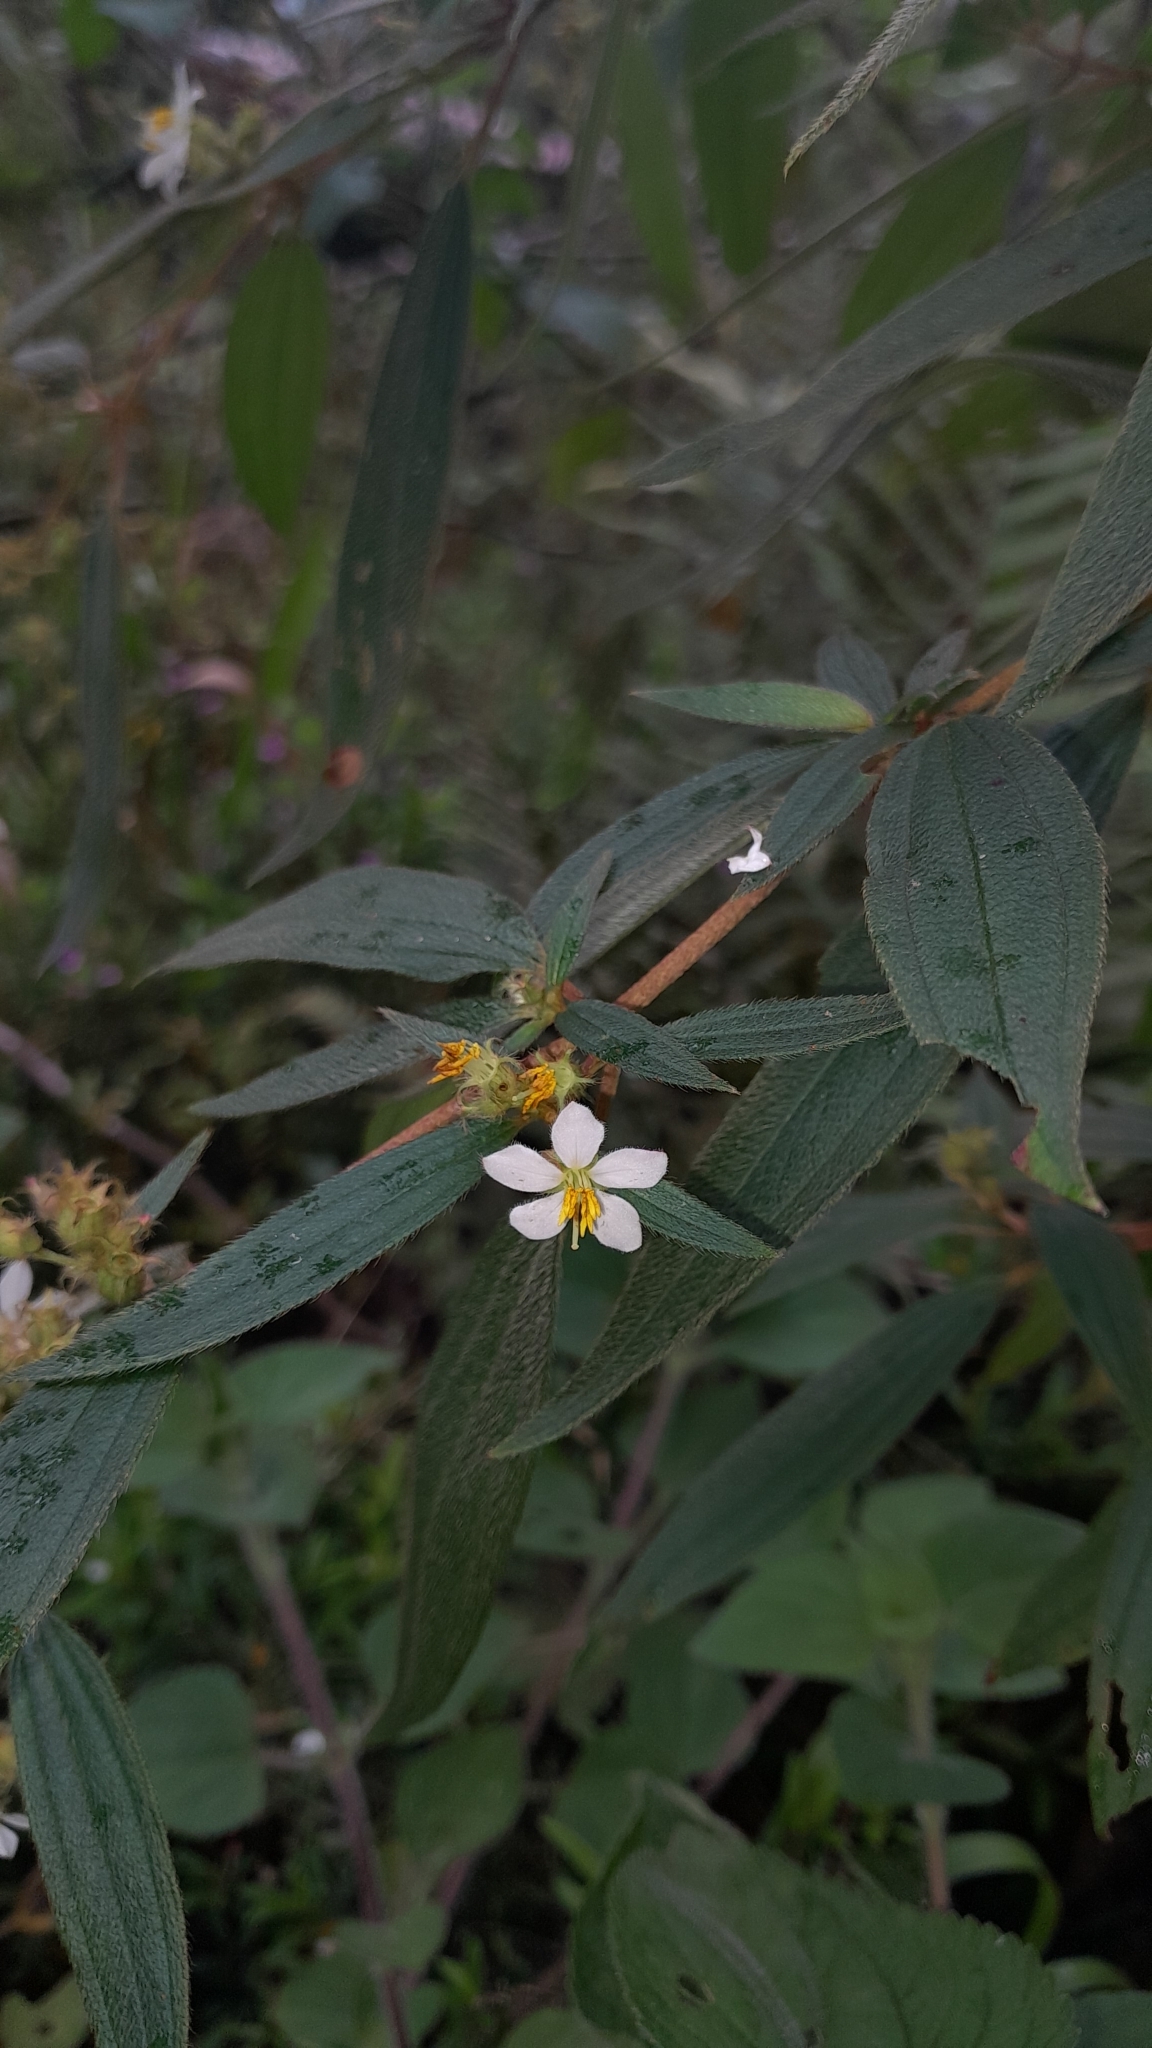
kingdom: Plantae
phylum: Tracheophyta
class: Magnoliopsida
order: Myrtales
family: Melastomataceae
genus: Chaetogastra
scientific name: Chaetogastra longifolia
